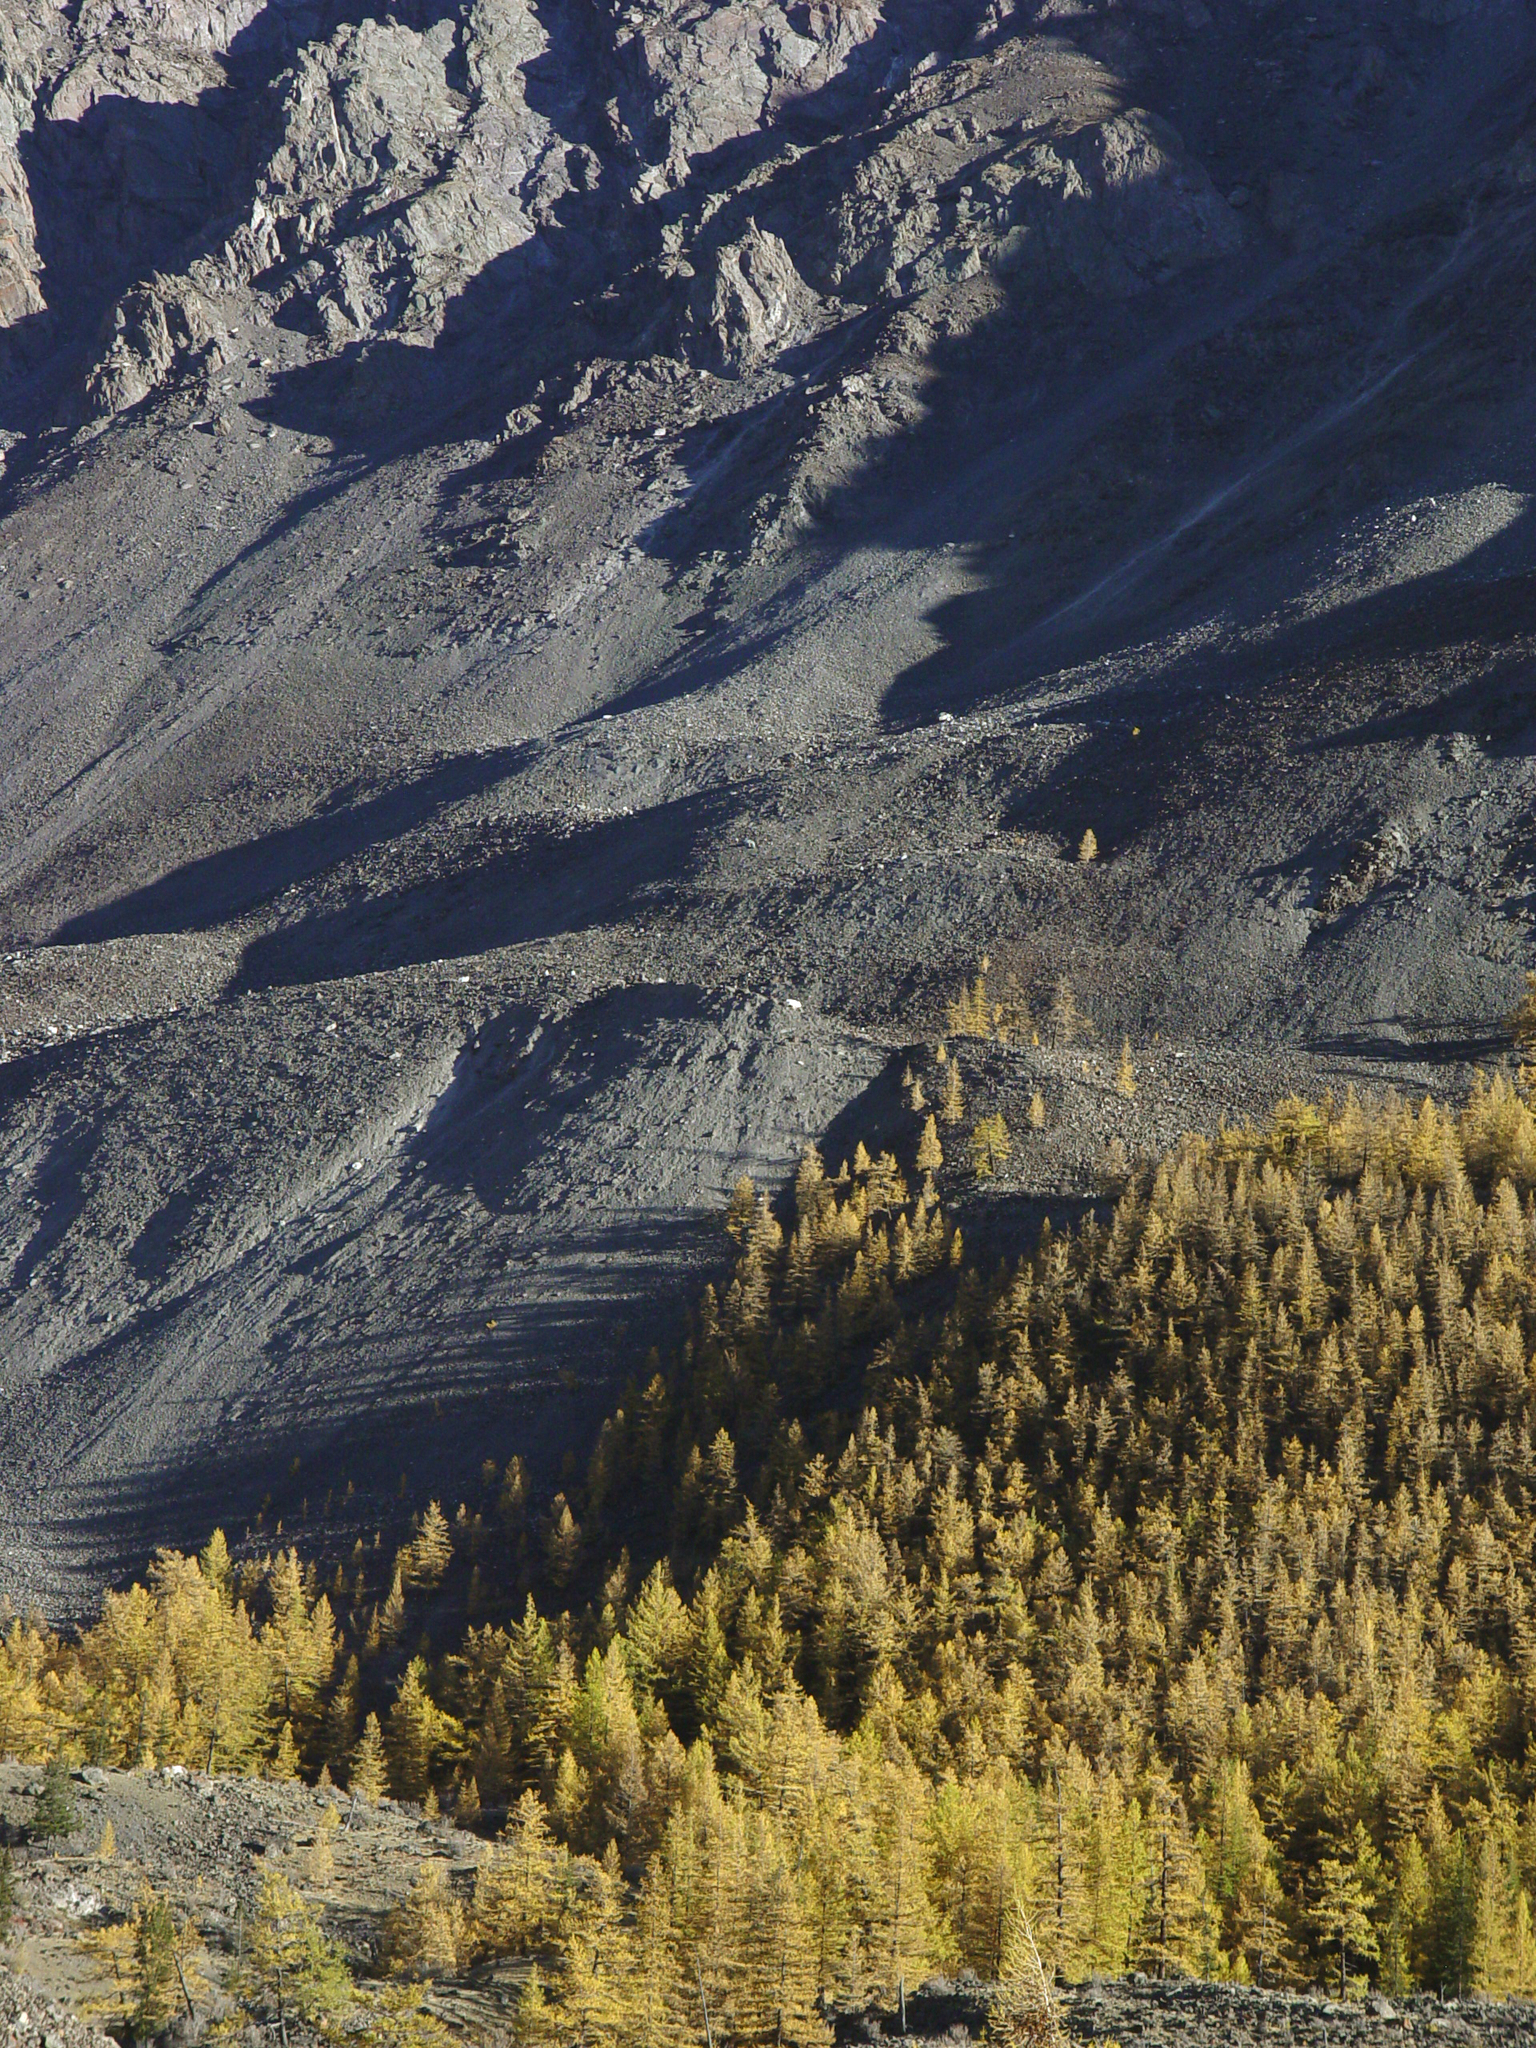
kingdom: Plantae
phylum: Tracheophyta
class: Pinopsida
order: Pinales
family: Pinaceae
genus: Larix
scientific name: Larix sibirica
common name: Siberian larch
